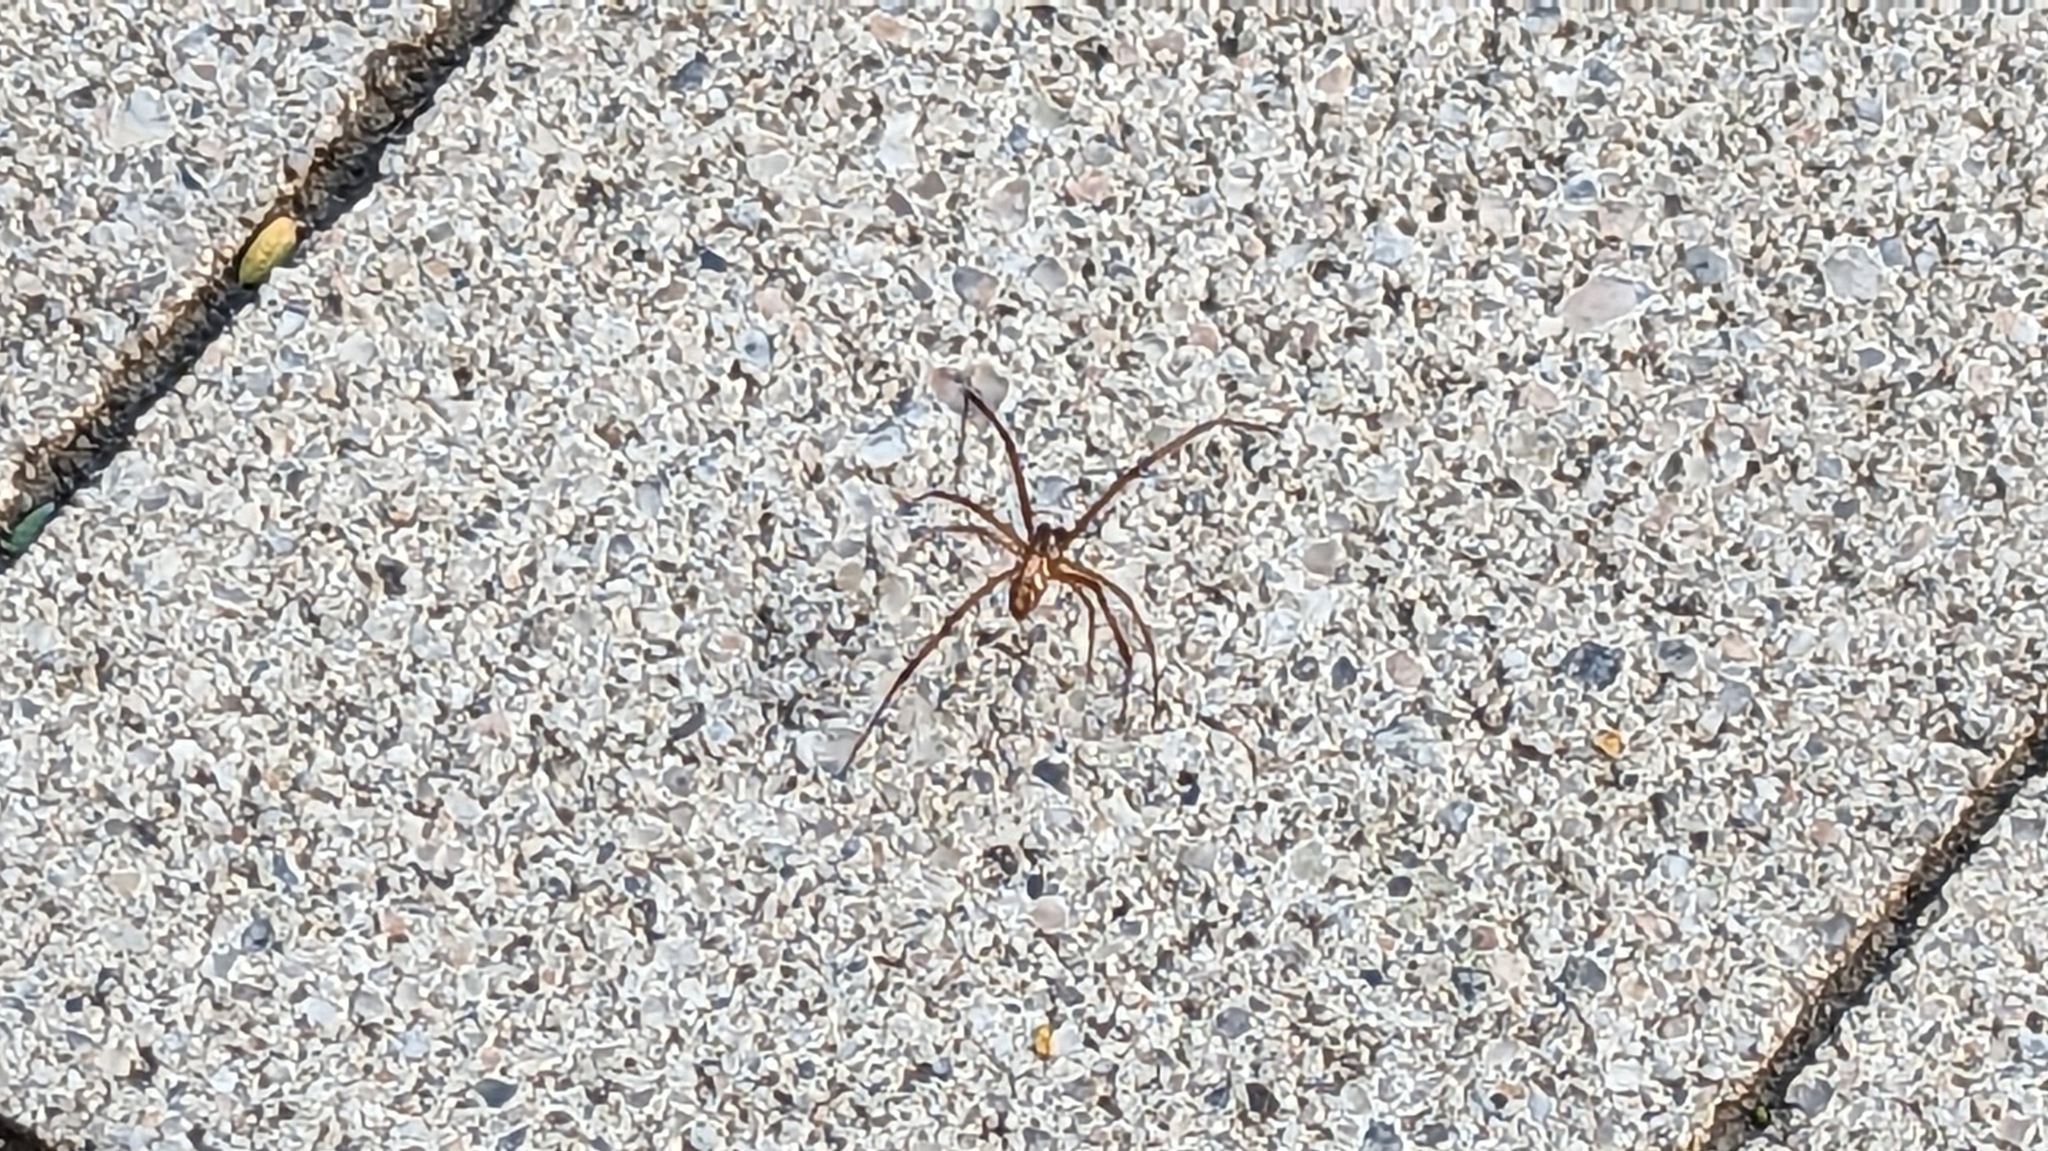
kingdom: Animalia
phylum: Arthropoda
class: Arachnida
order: Araneae
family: Theridiidae
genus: Latrodectus
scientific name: Latrodectus hesperus
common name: Western black widow
